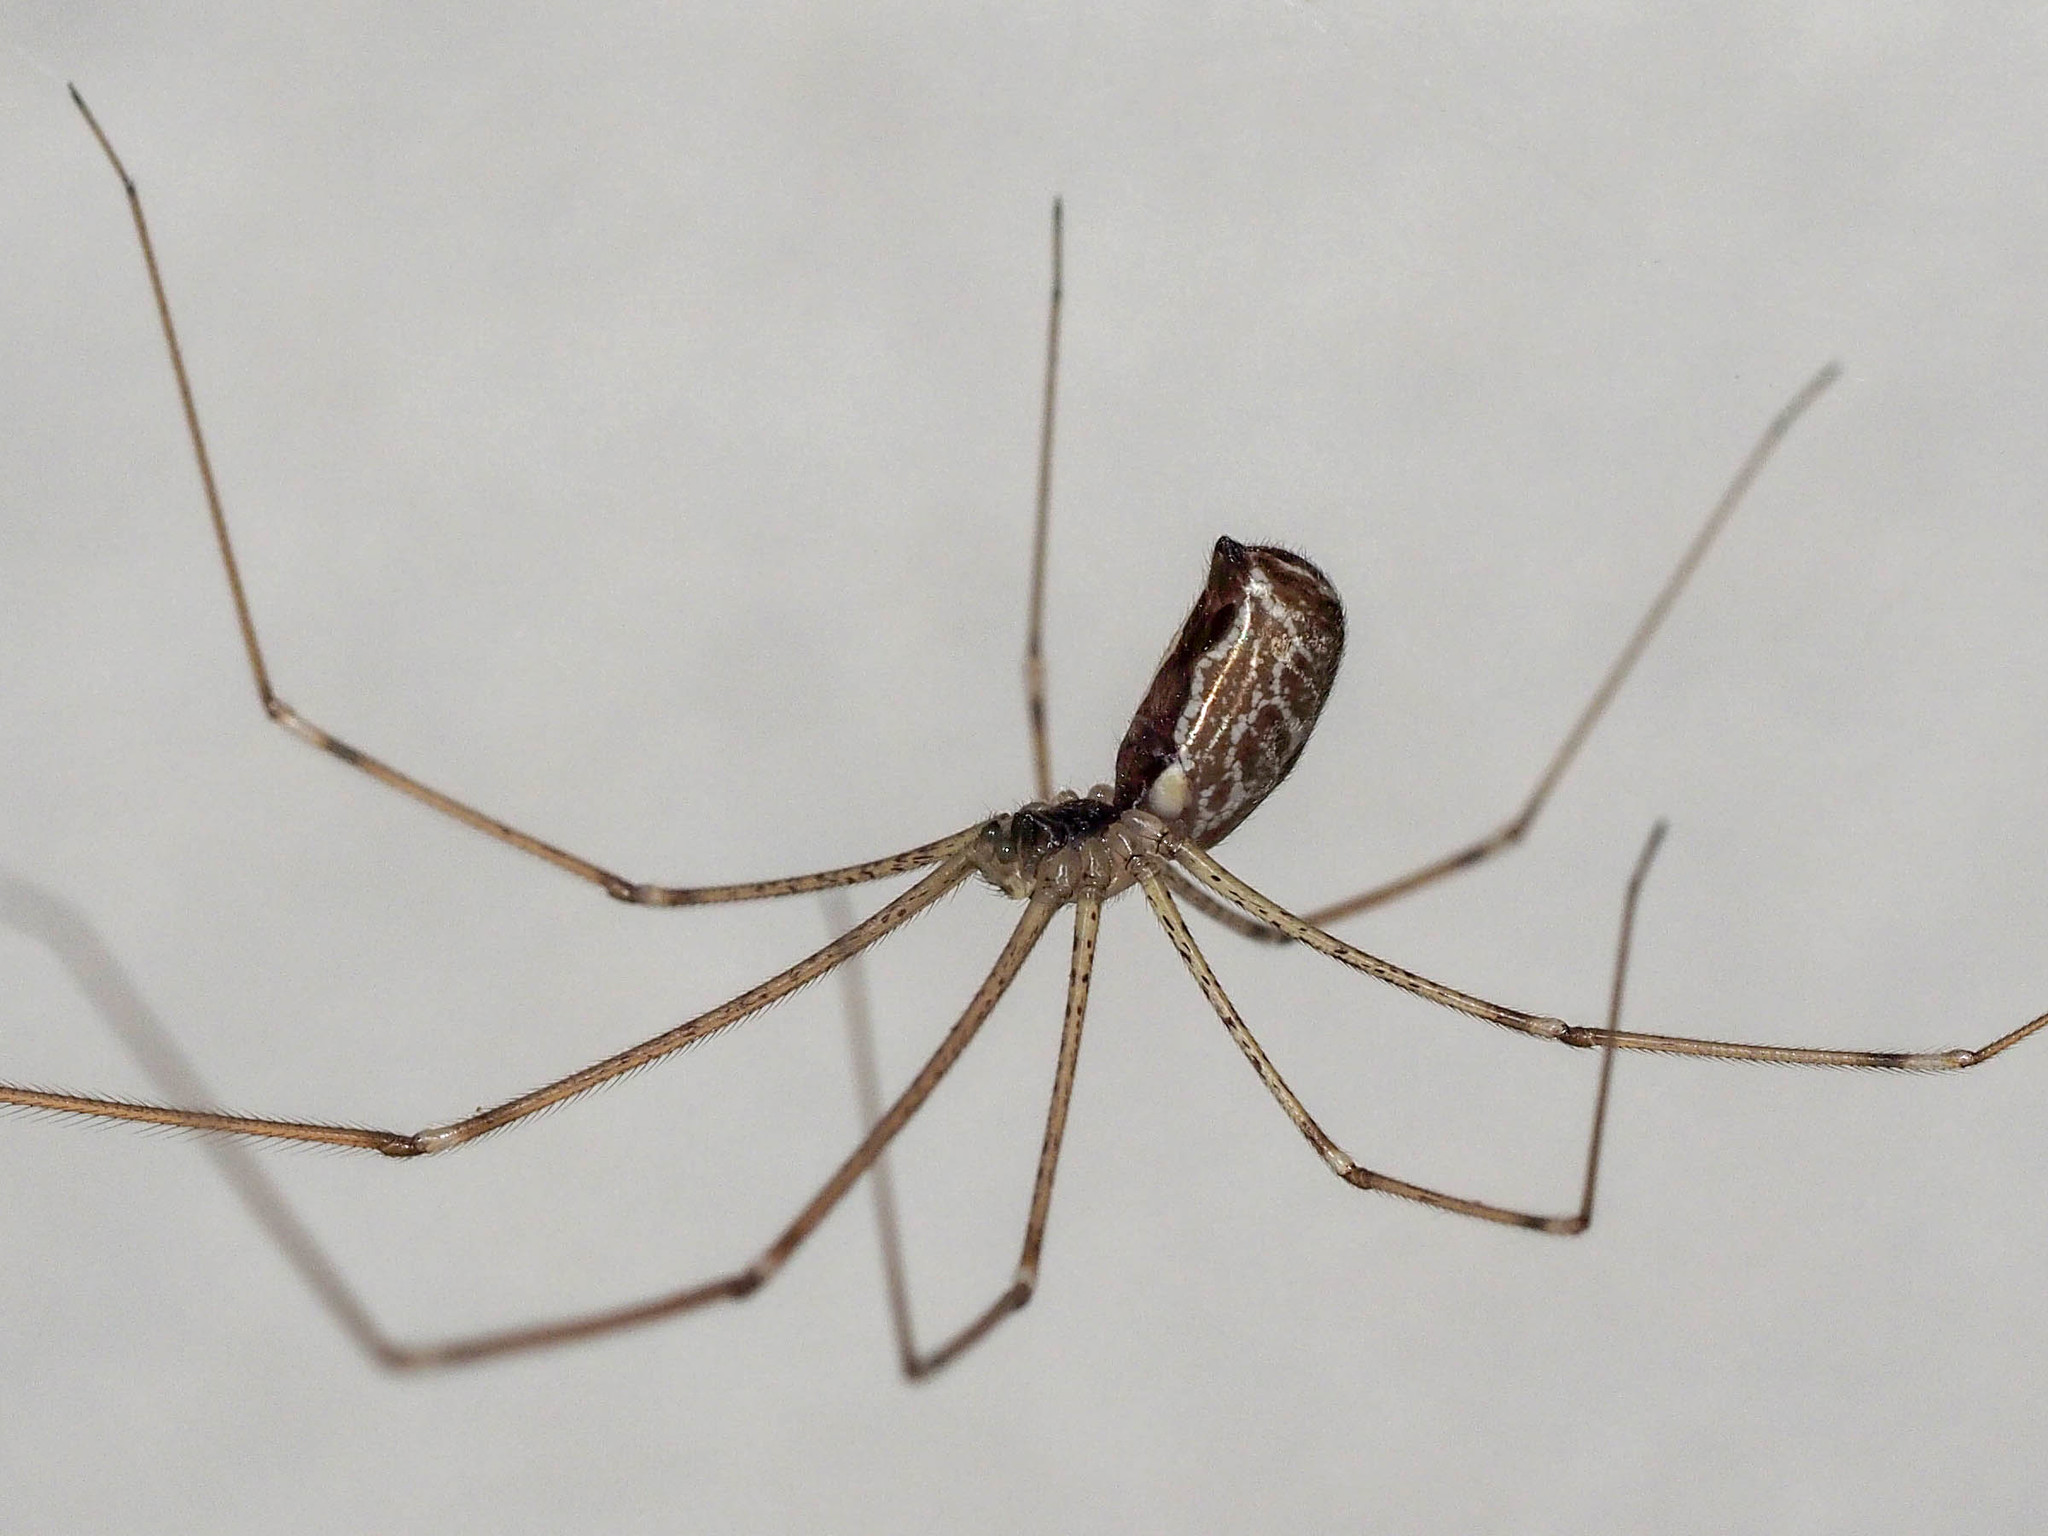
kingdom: Animalia
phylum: Arthropoda
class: Arachnida
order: Araneae
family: Pholcidae
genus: Holocnemus
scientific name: Holocnemus pluchei
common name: Marbled cellar spider
